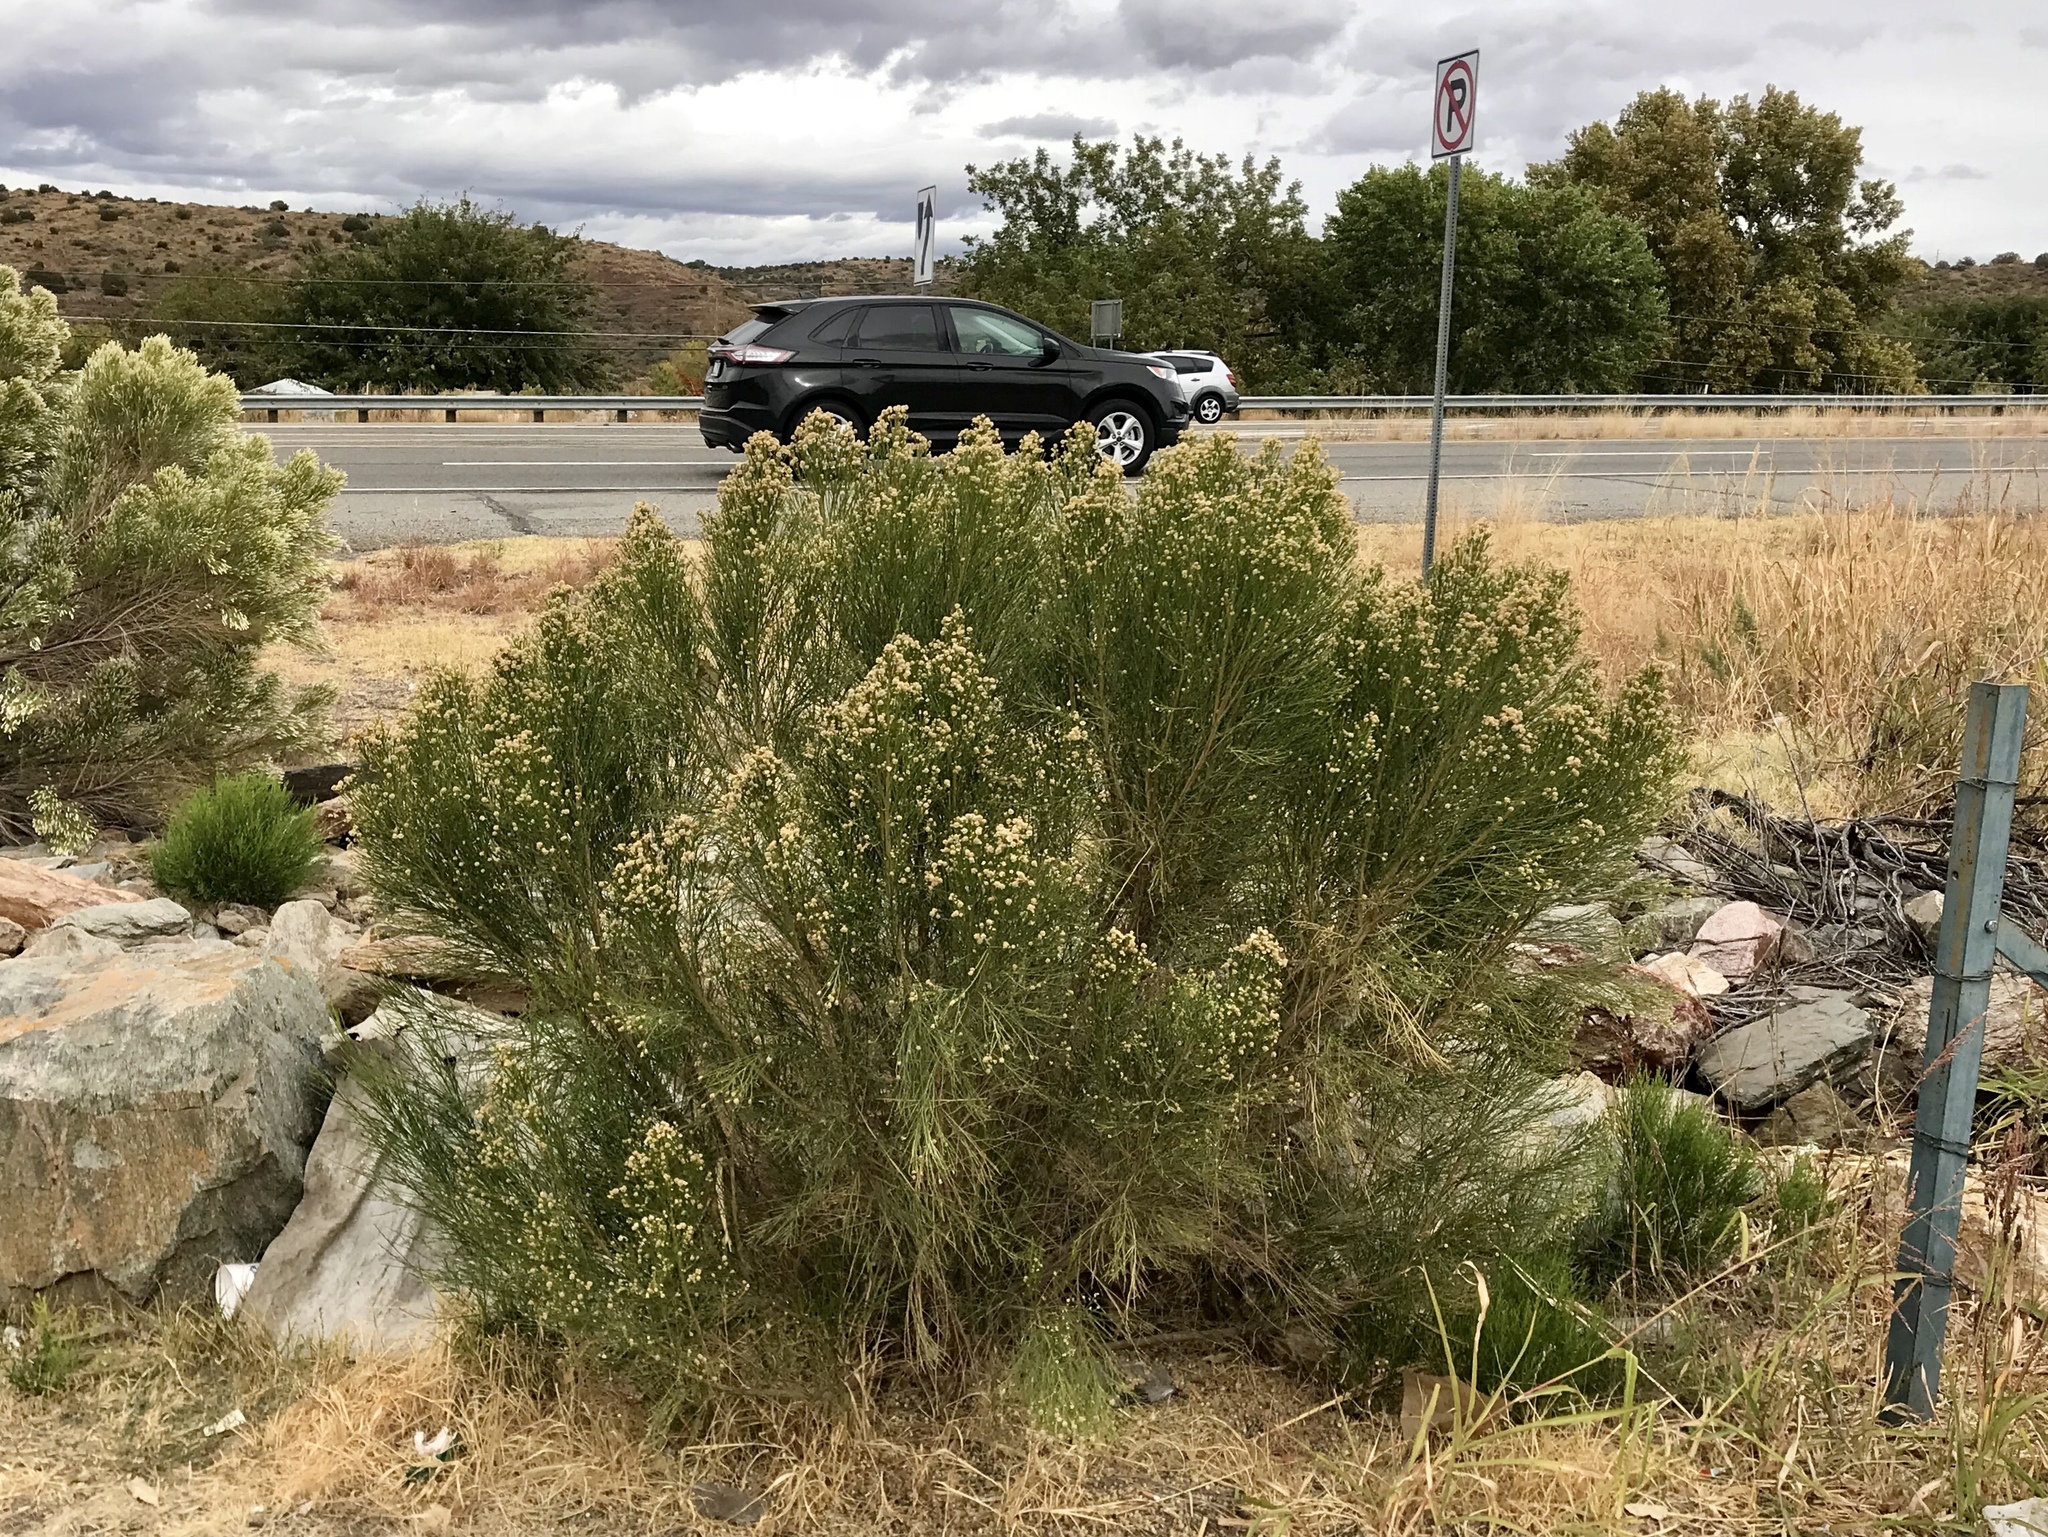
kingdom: Plantae
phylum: Tracheophyta
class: Magnoliopsida
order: Asterales
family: Asteraceae
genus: Baccharis
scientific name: Baccharis sarothroides
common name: Desert-broom
